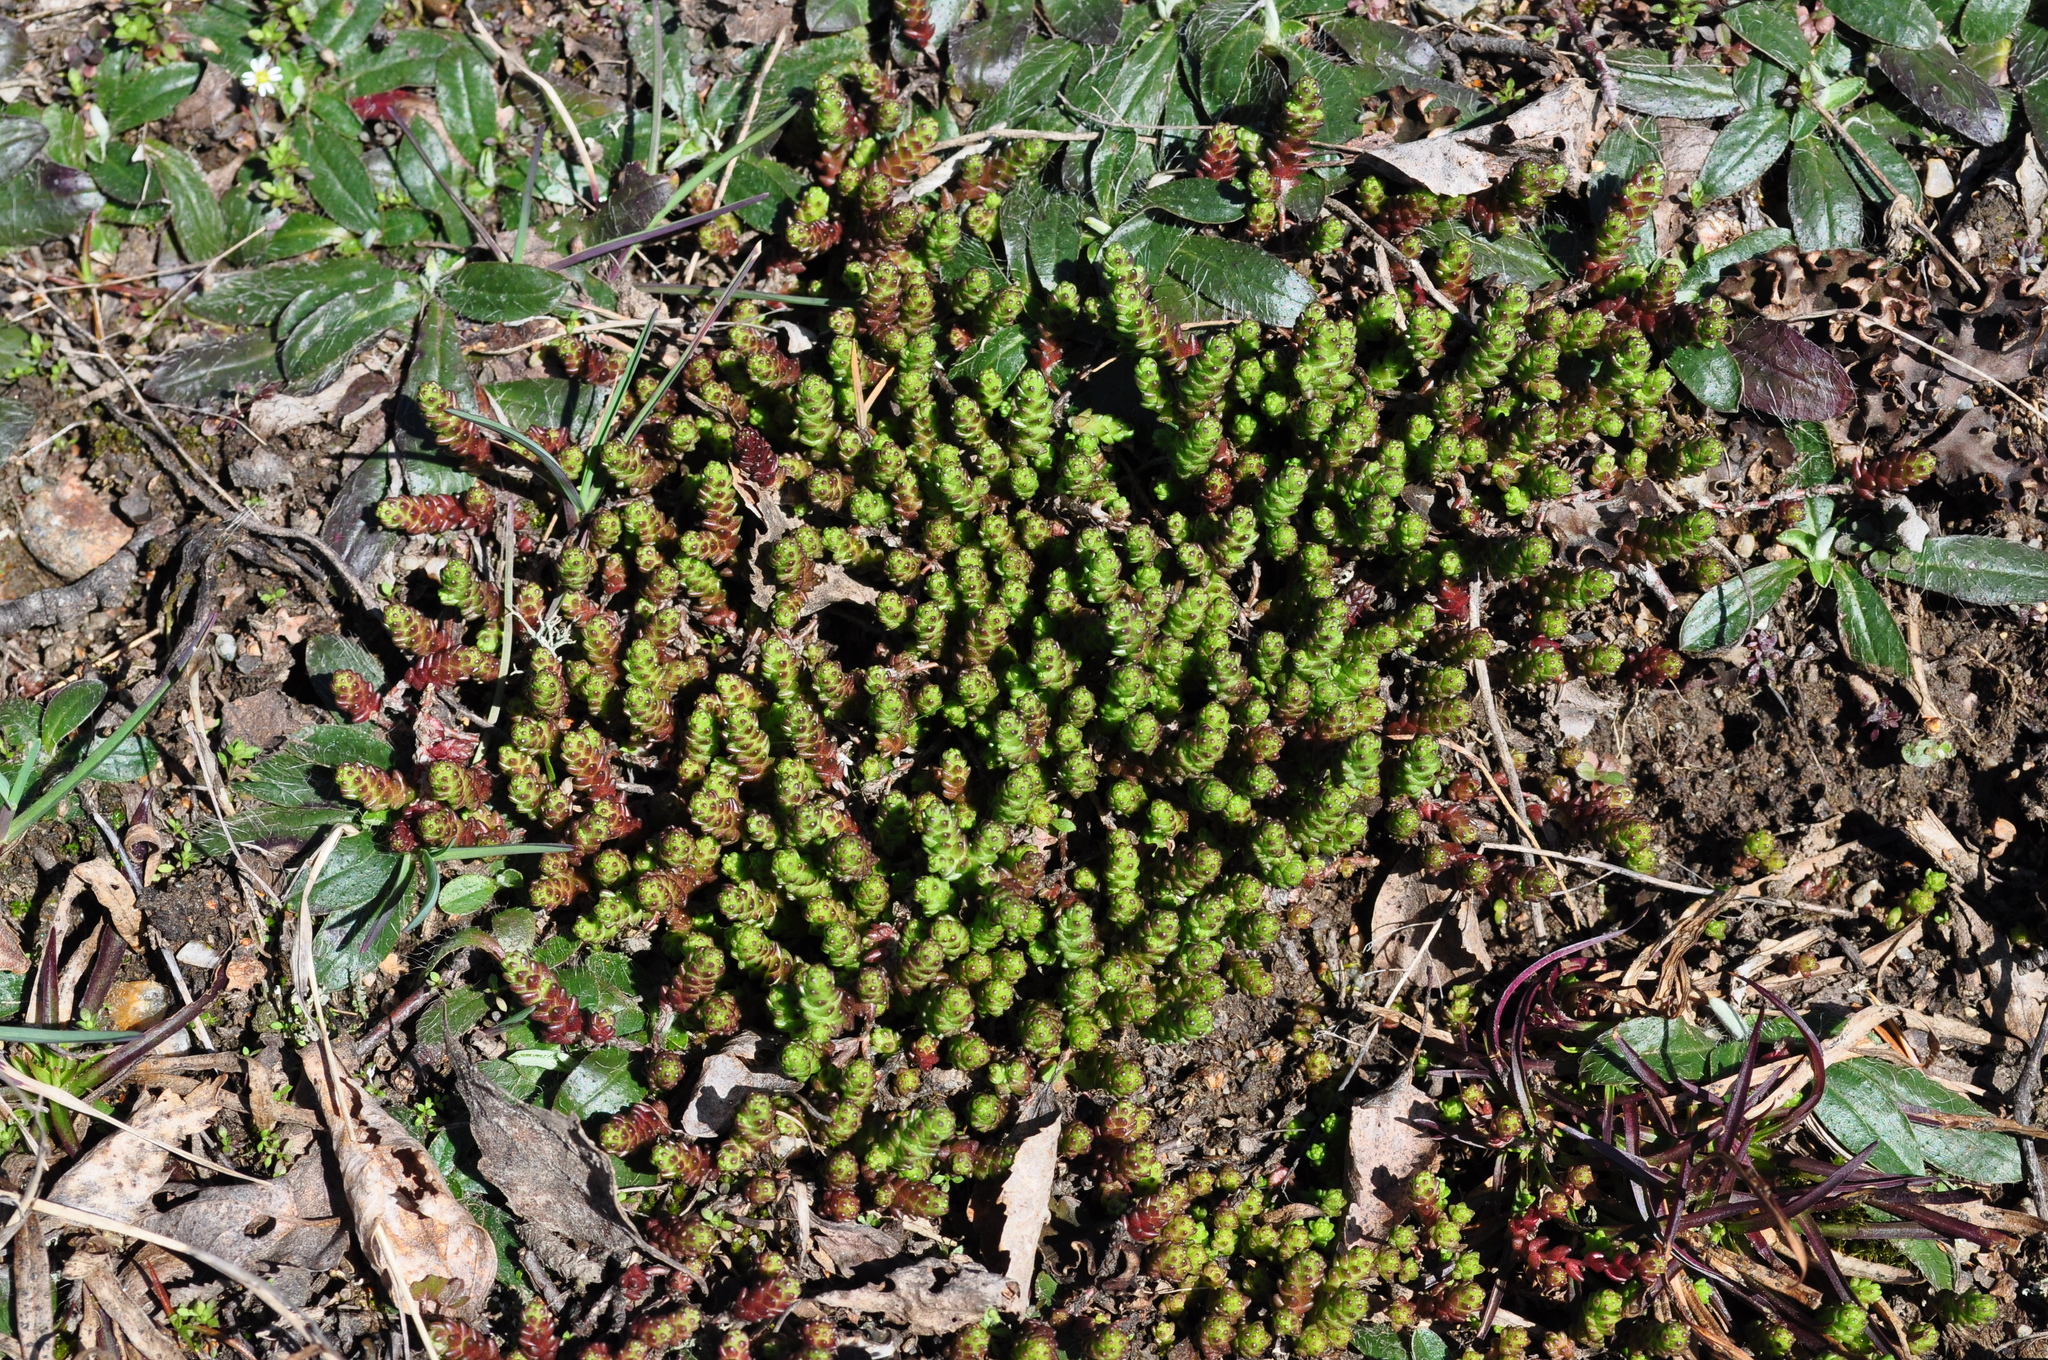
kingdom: Plantae
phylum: Tracheophyta
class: Magnoliopsida
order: Saxifragales
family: Crassulaceae
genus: Sedum
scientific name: Sedum acre
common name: Biting stonecrop
